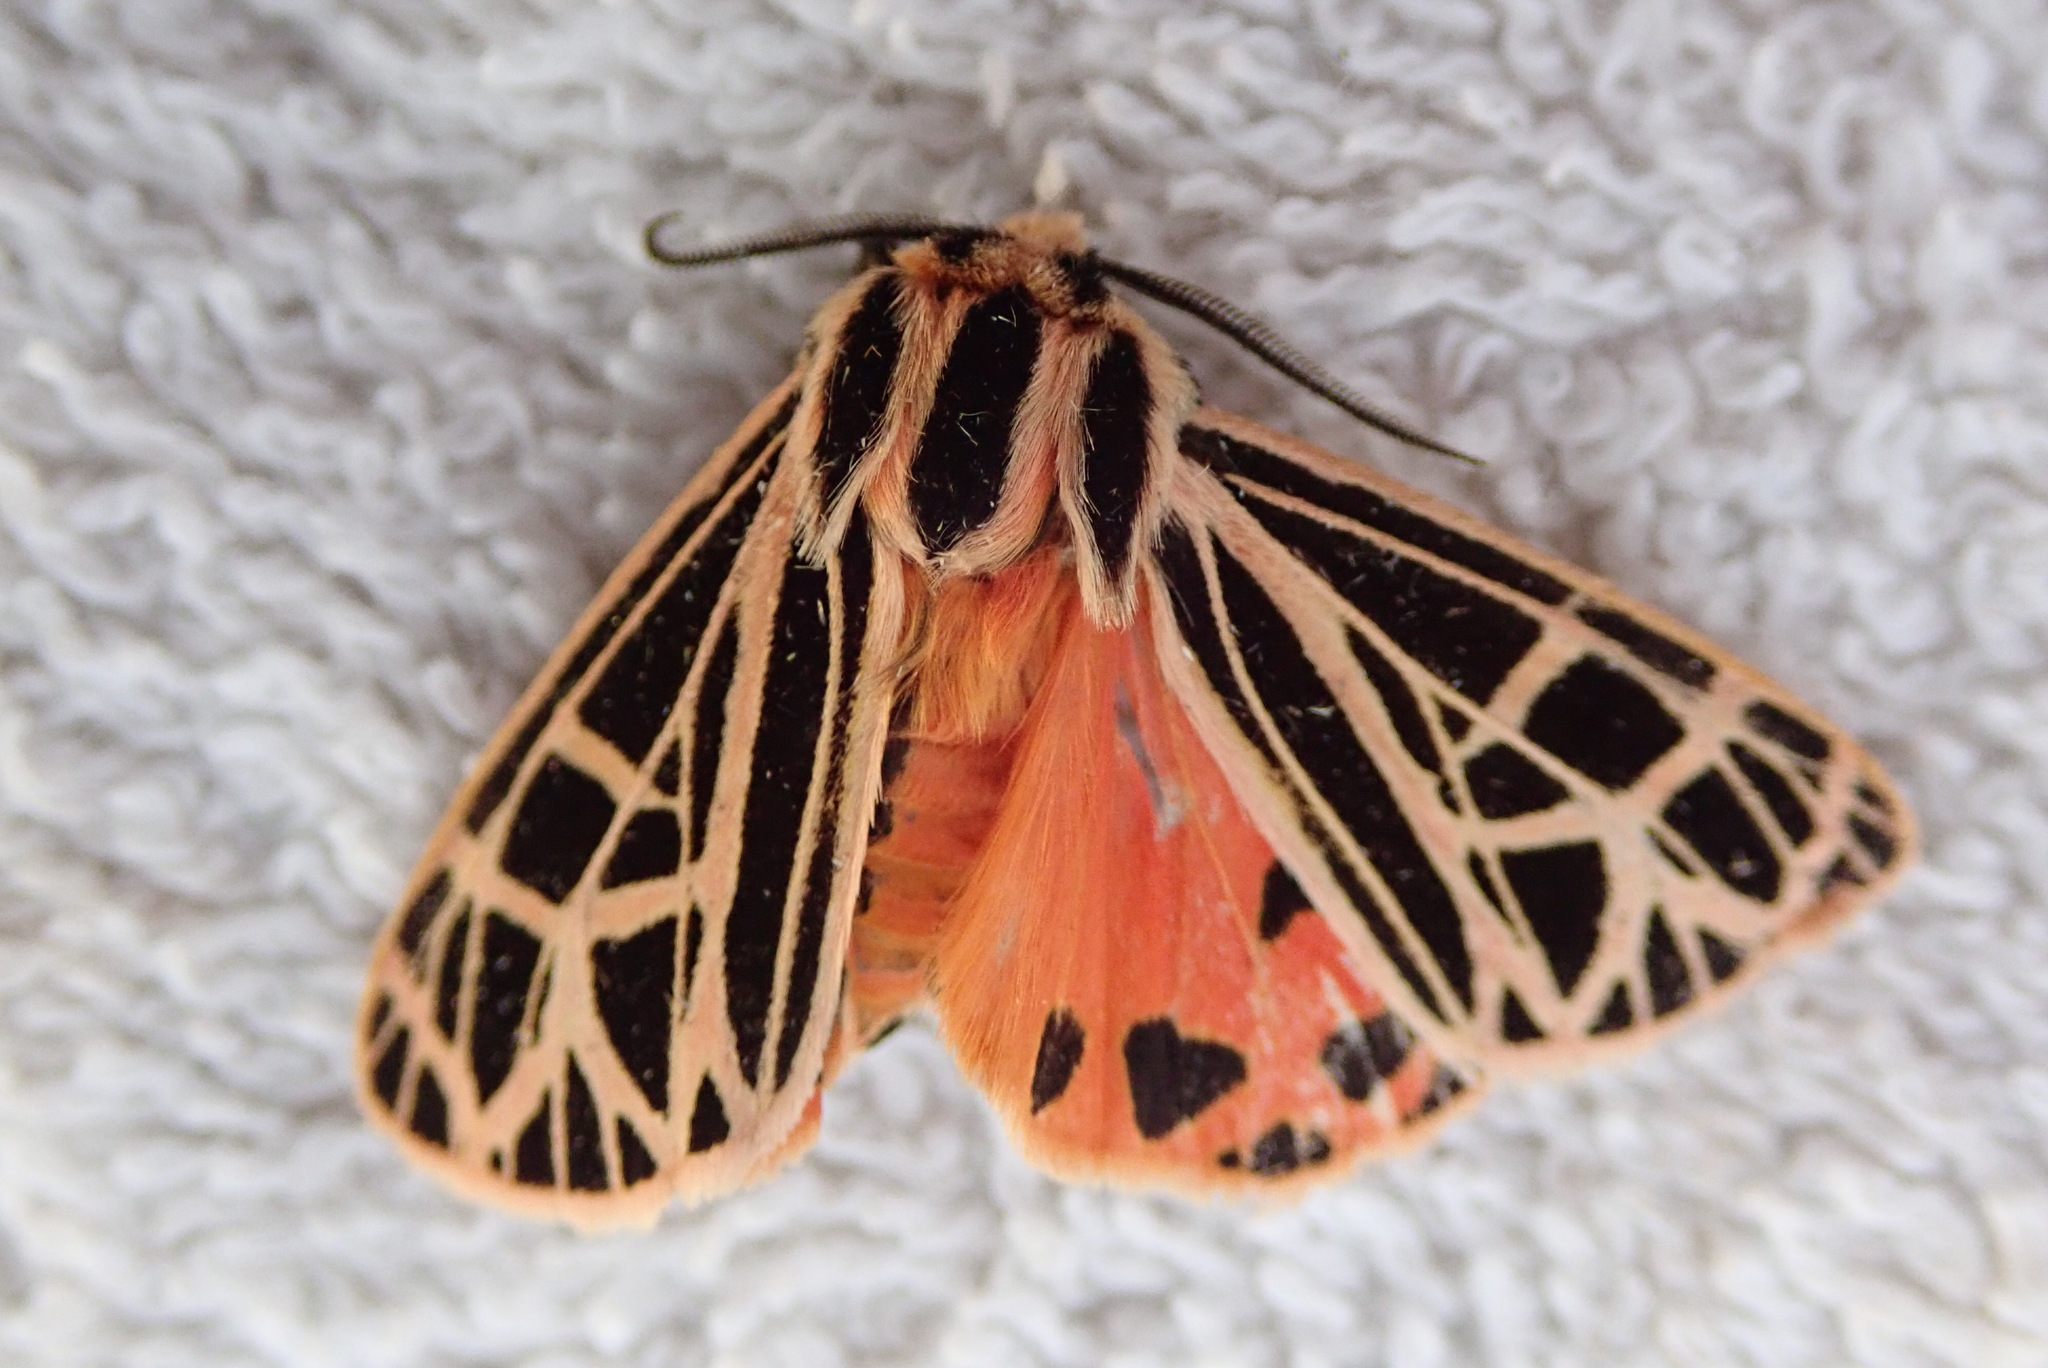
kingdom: Animalia
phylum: Arthropoda
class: Insecta
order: Lepidoptera
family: Erebidae
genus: Grammia
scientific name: Grammia parthenice
